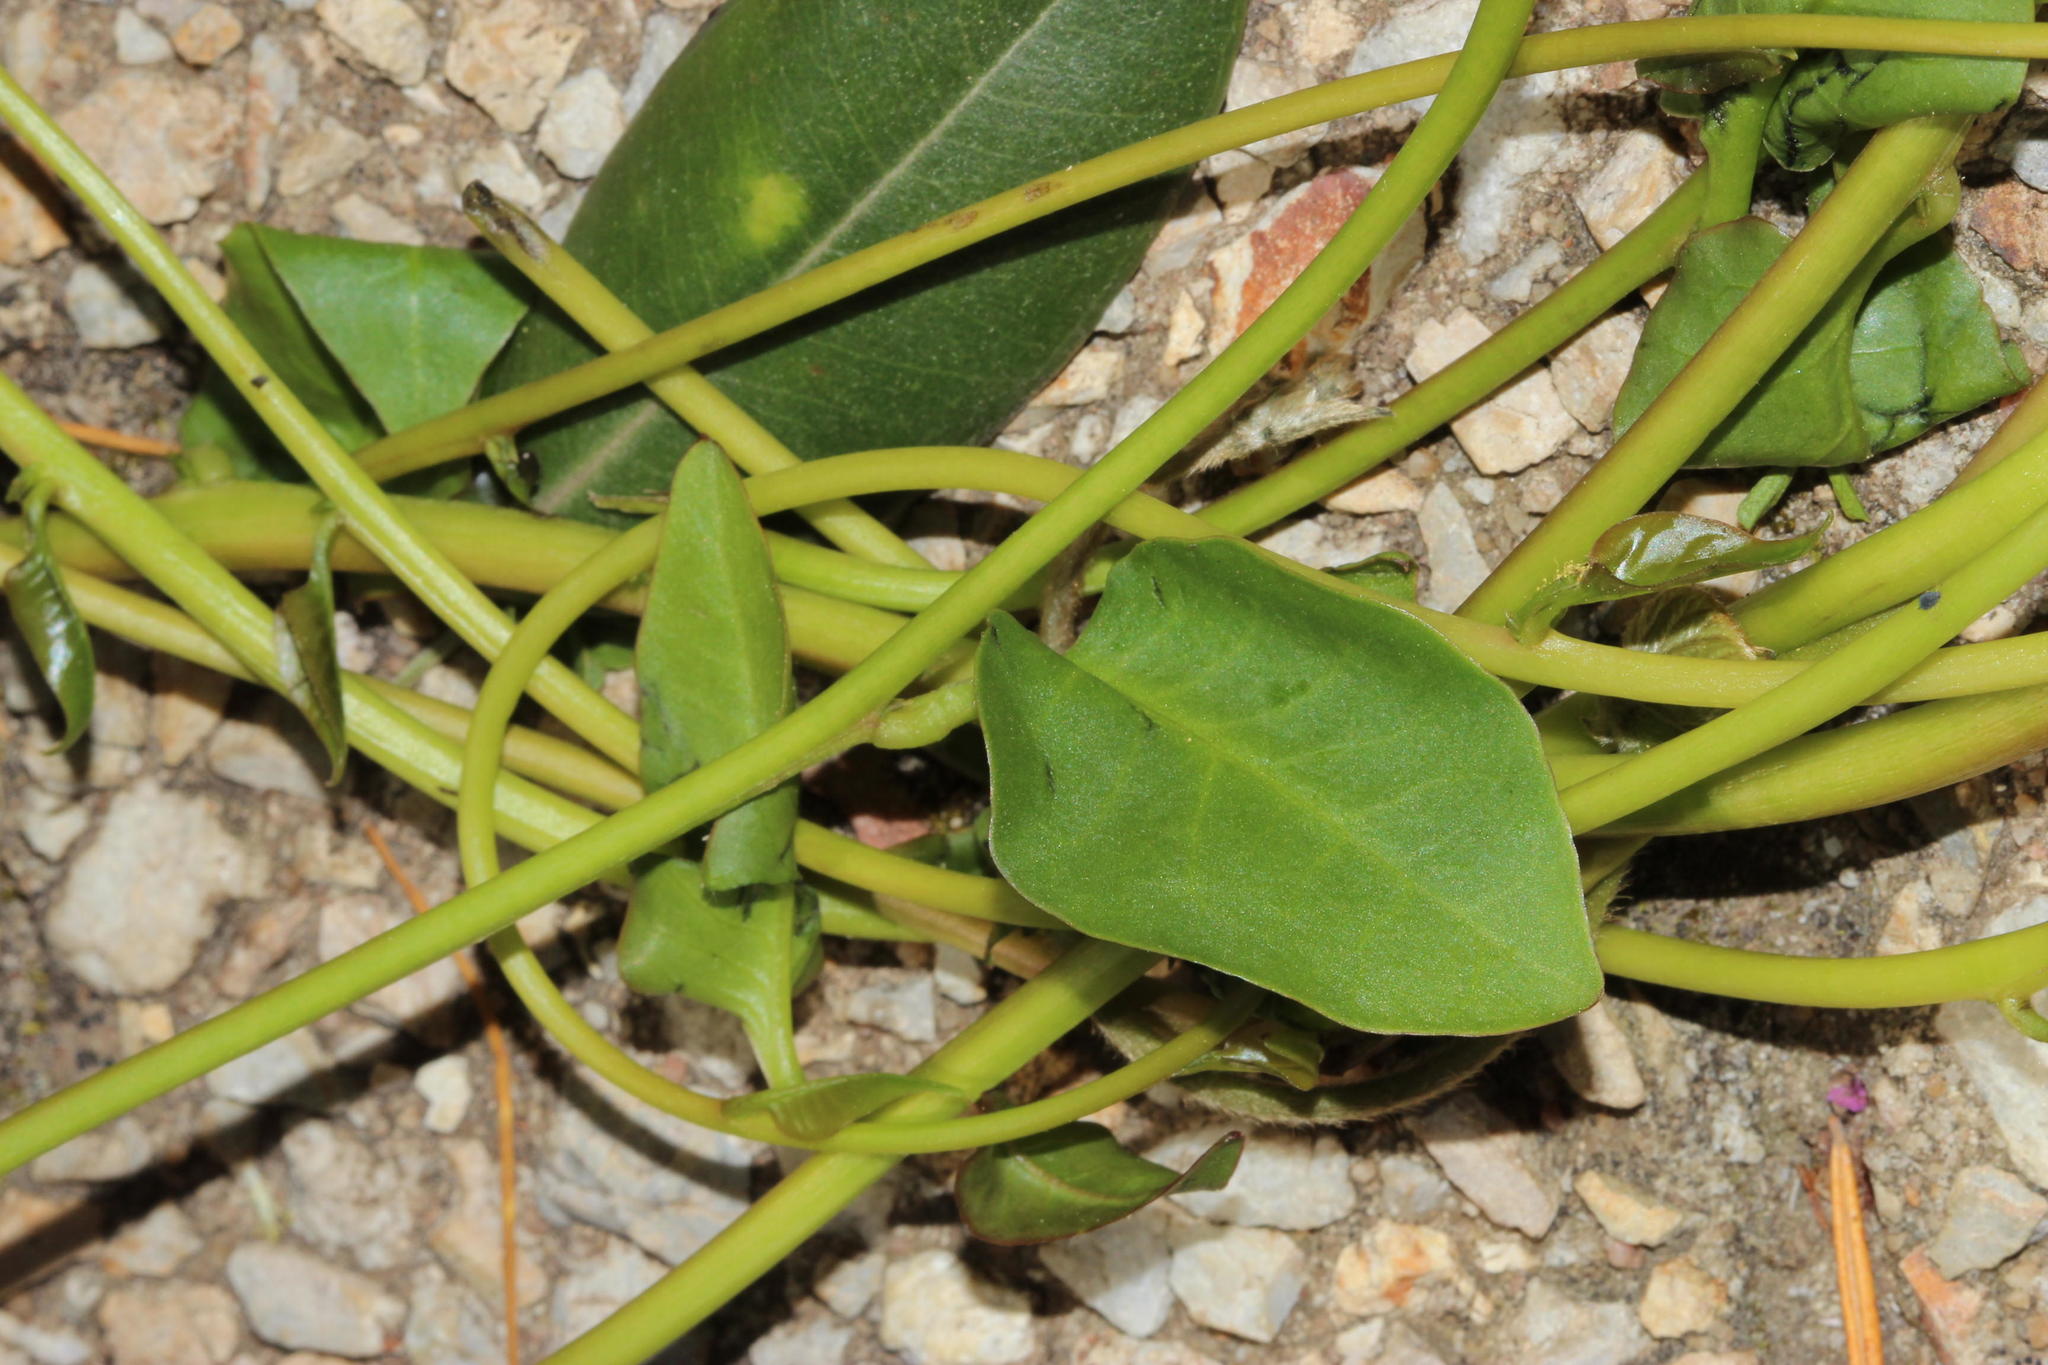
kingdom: Plantae
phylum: Tracheophyta
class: Magnoliopsida
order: Caryophyllales
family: Basellaceae
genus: Anredera
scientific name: Anredera cordifolia
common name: Heartleaf madeiravine
